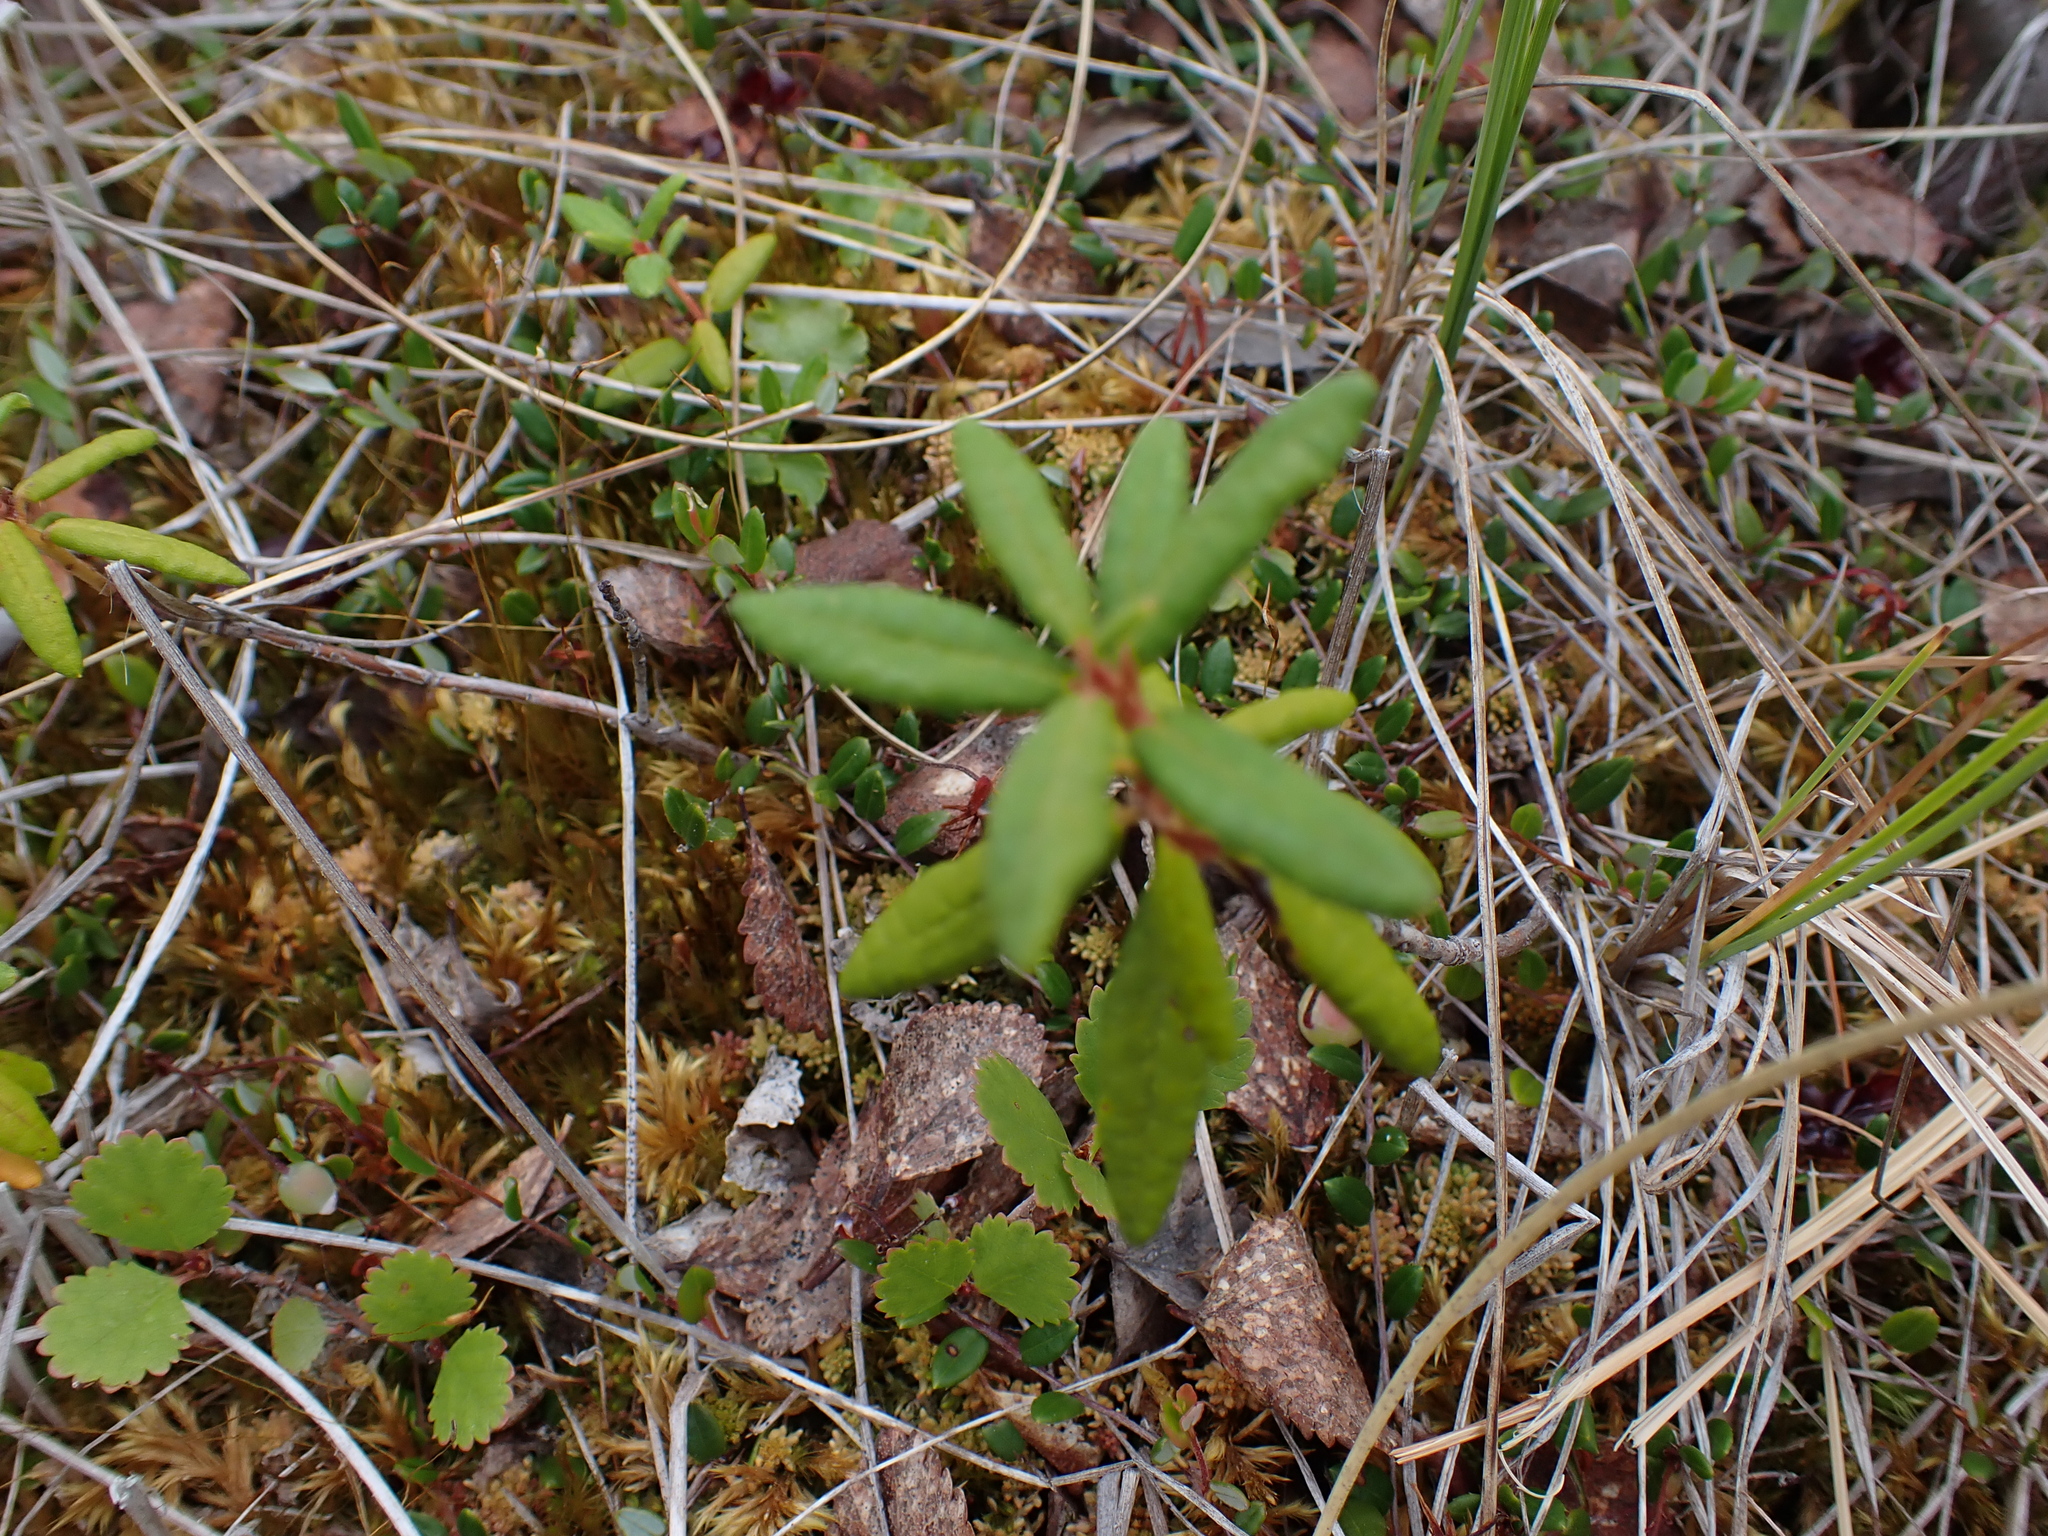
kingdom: Plantae
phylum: Tracheophyta
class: Magnoliopsida
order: Ericales
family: Ericaceae
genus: Rhododendron
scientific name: Rhododendron groenlandicum
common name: Bog labrador tea
